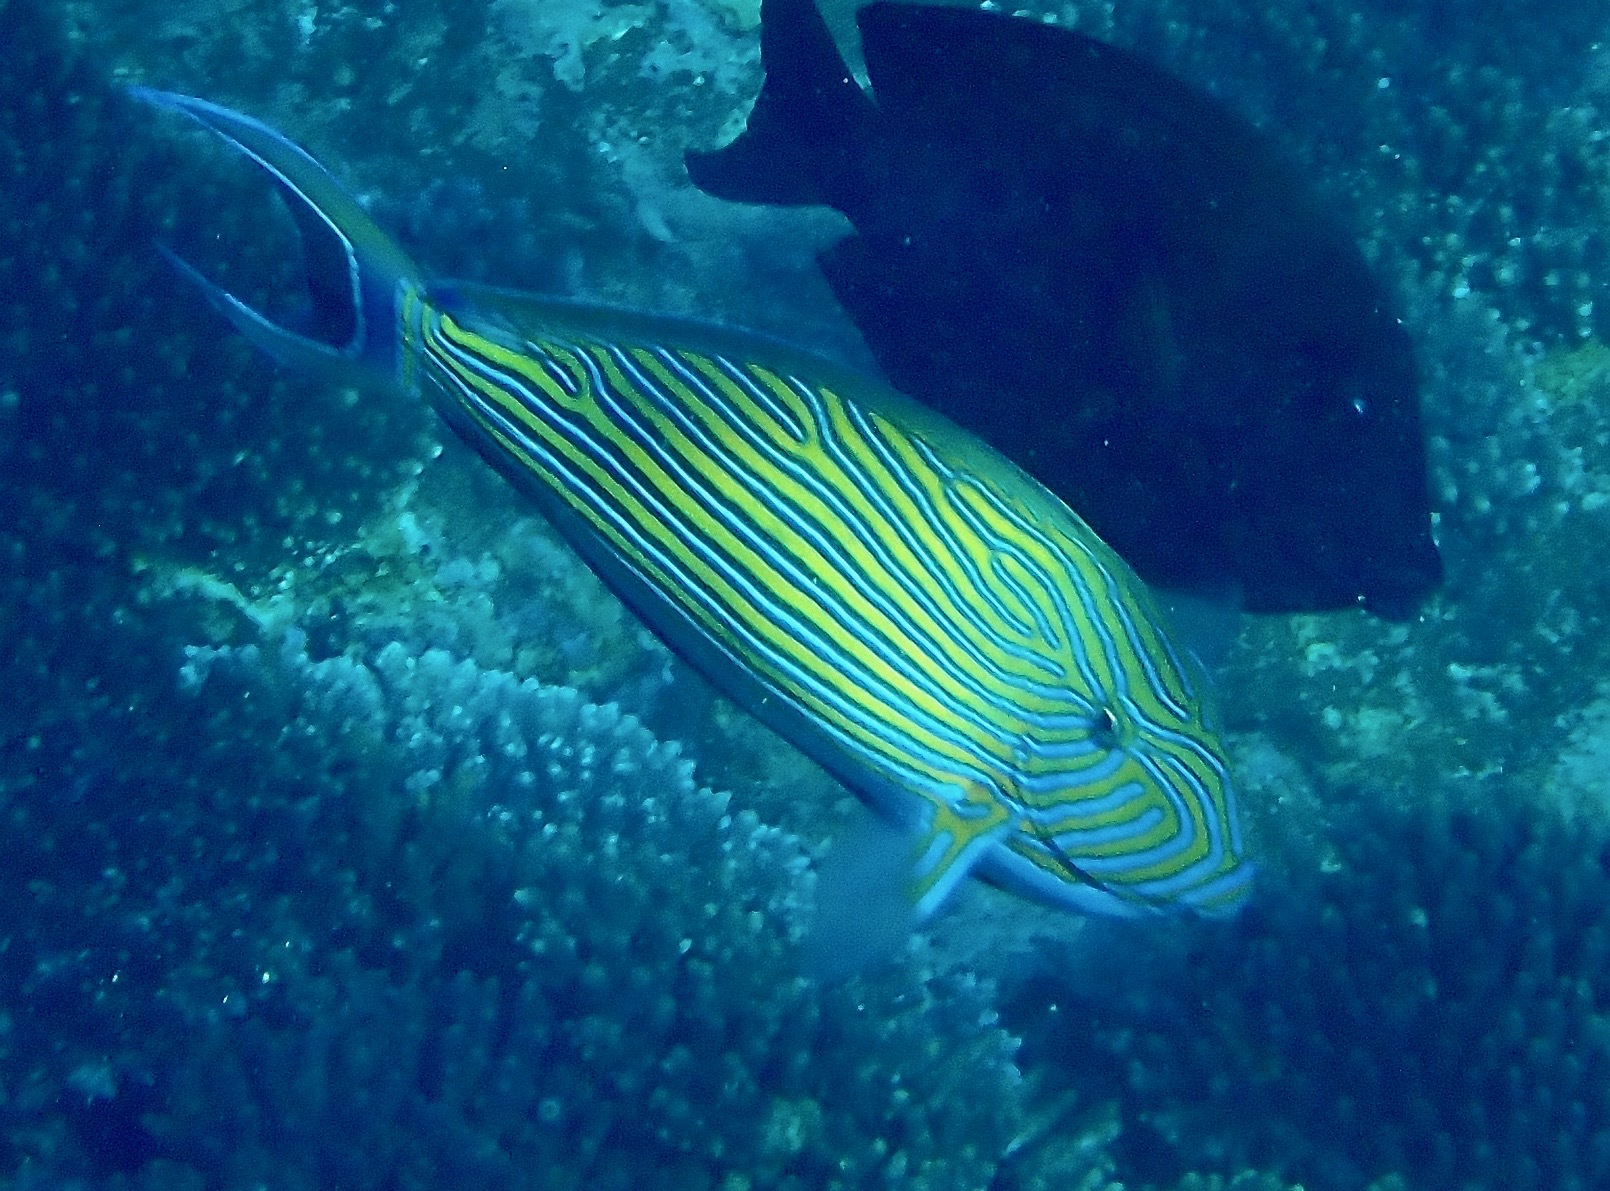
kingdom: Animalia
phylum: Chordata
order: Perciformes
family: Acanthuridae
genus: Acanthurus
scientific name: Acanthurus lineatus
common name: Striped surgeonfish
